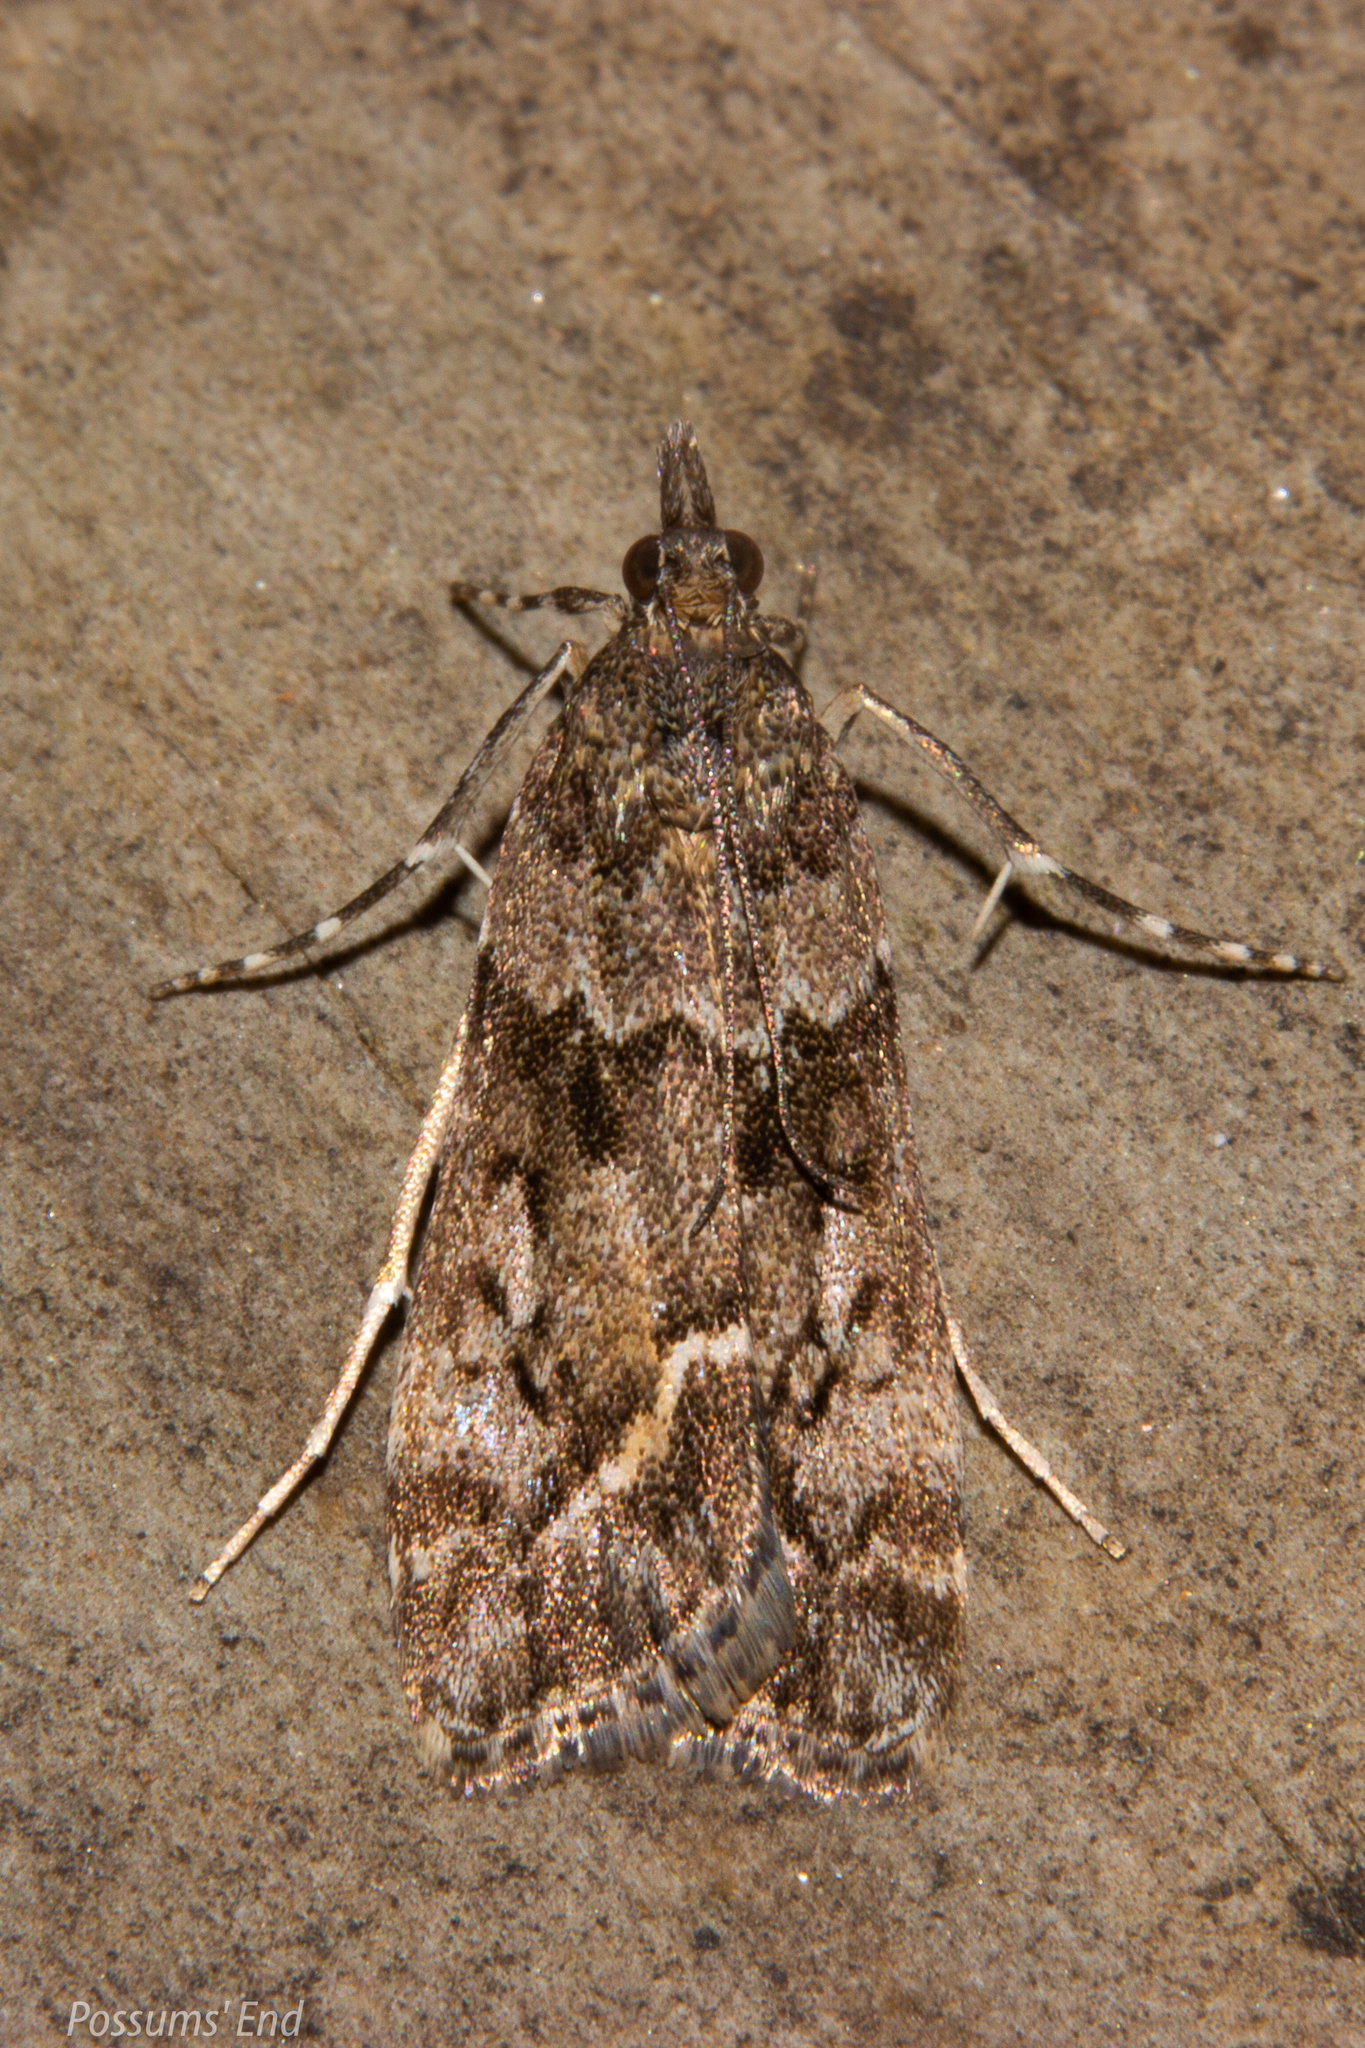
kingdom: Animalia
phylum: Arthropoda
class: Insecta
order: Lepidoptera
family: Crambidae
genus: Eudonia
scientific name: Eudonia submarginalis
